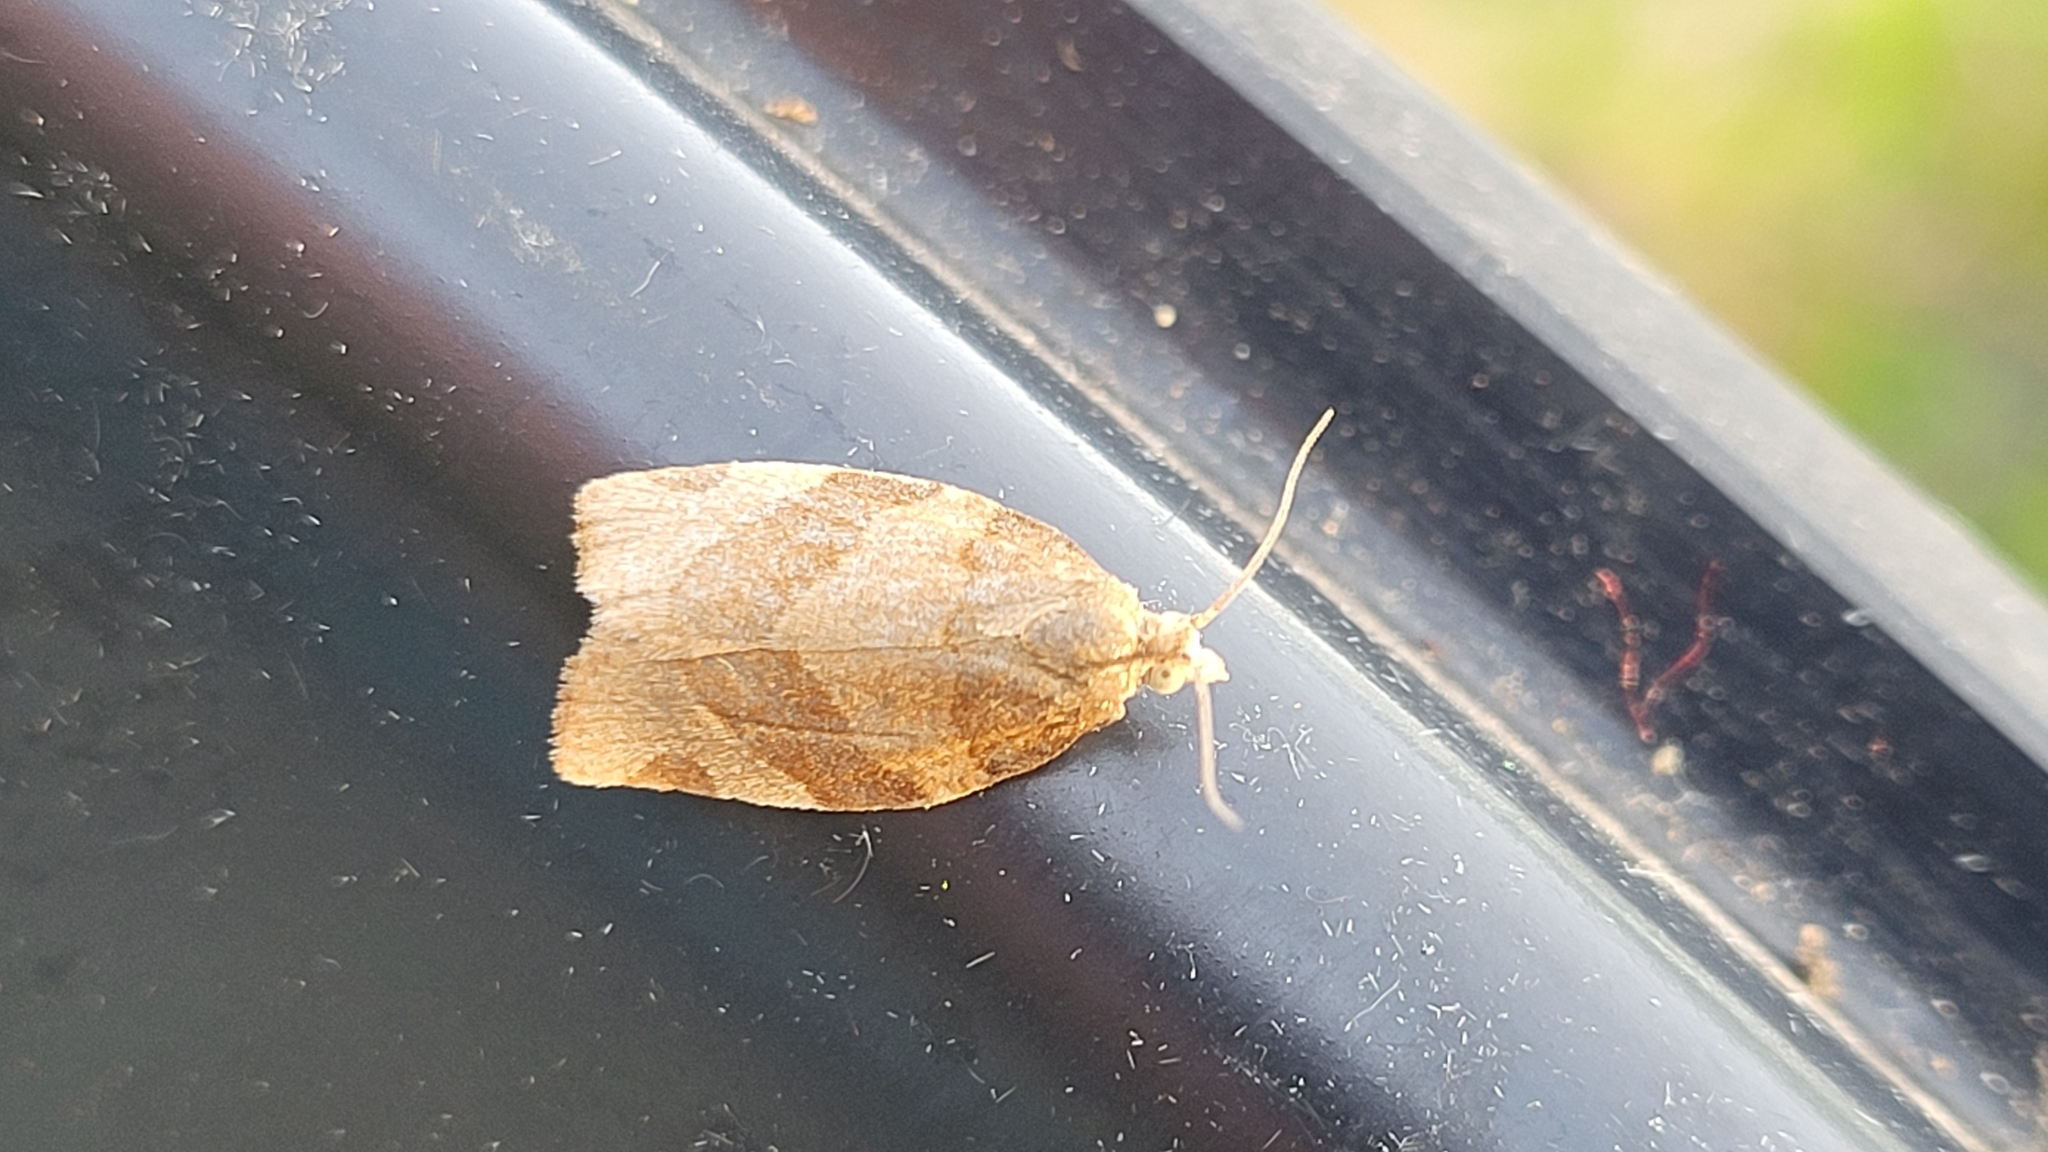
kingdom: Animalia
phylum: Arthropoda
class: Insecta
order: Lepidoptera
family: Tortricidae
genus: Pandemis
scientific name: Pandemis cerasana
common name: Barred fruit-tree tortrix
